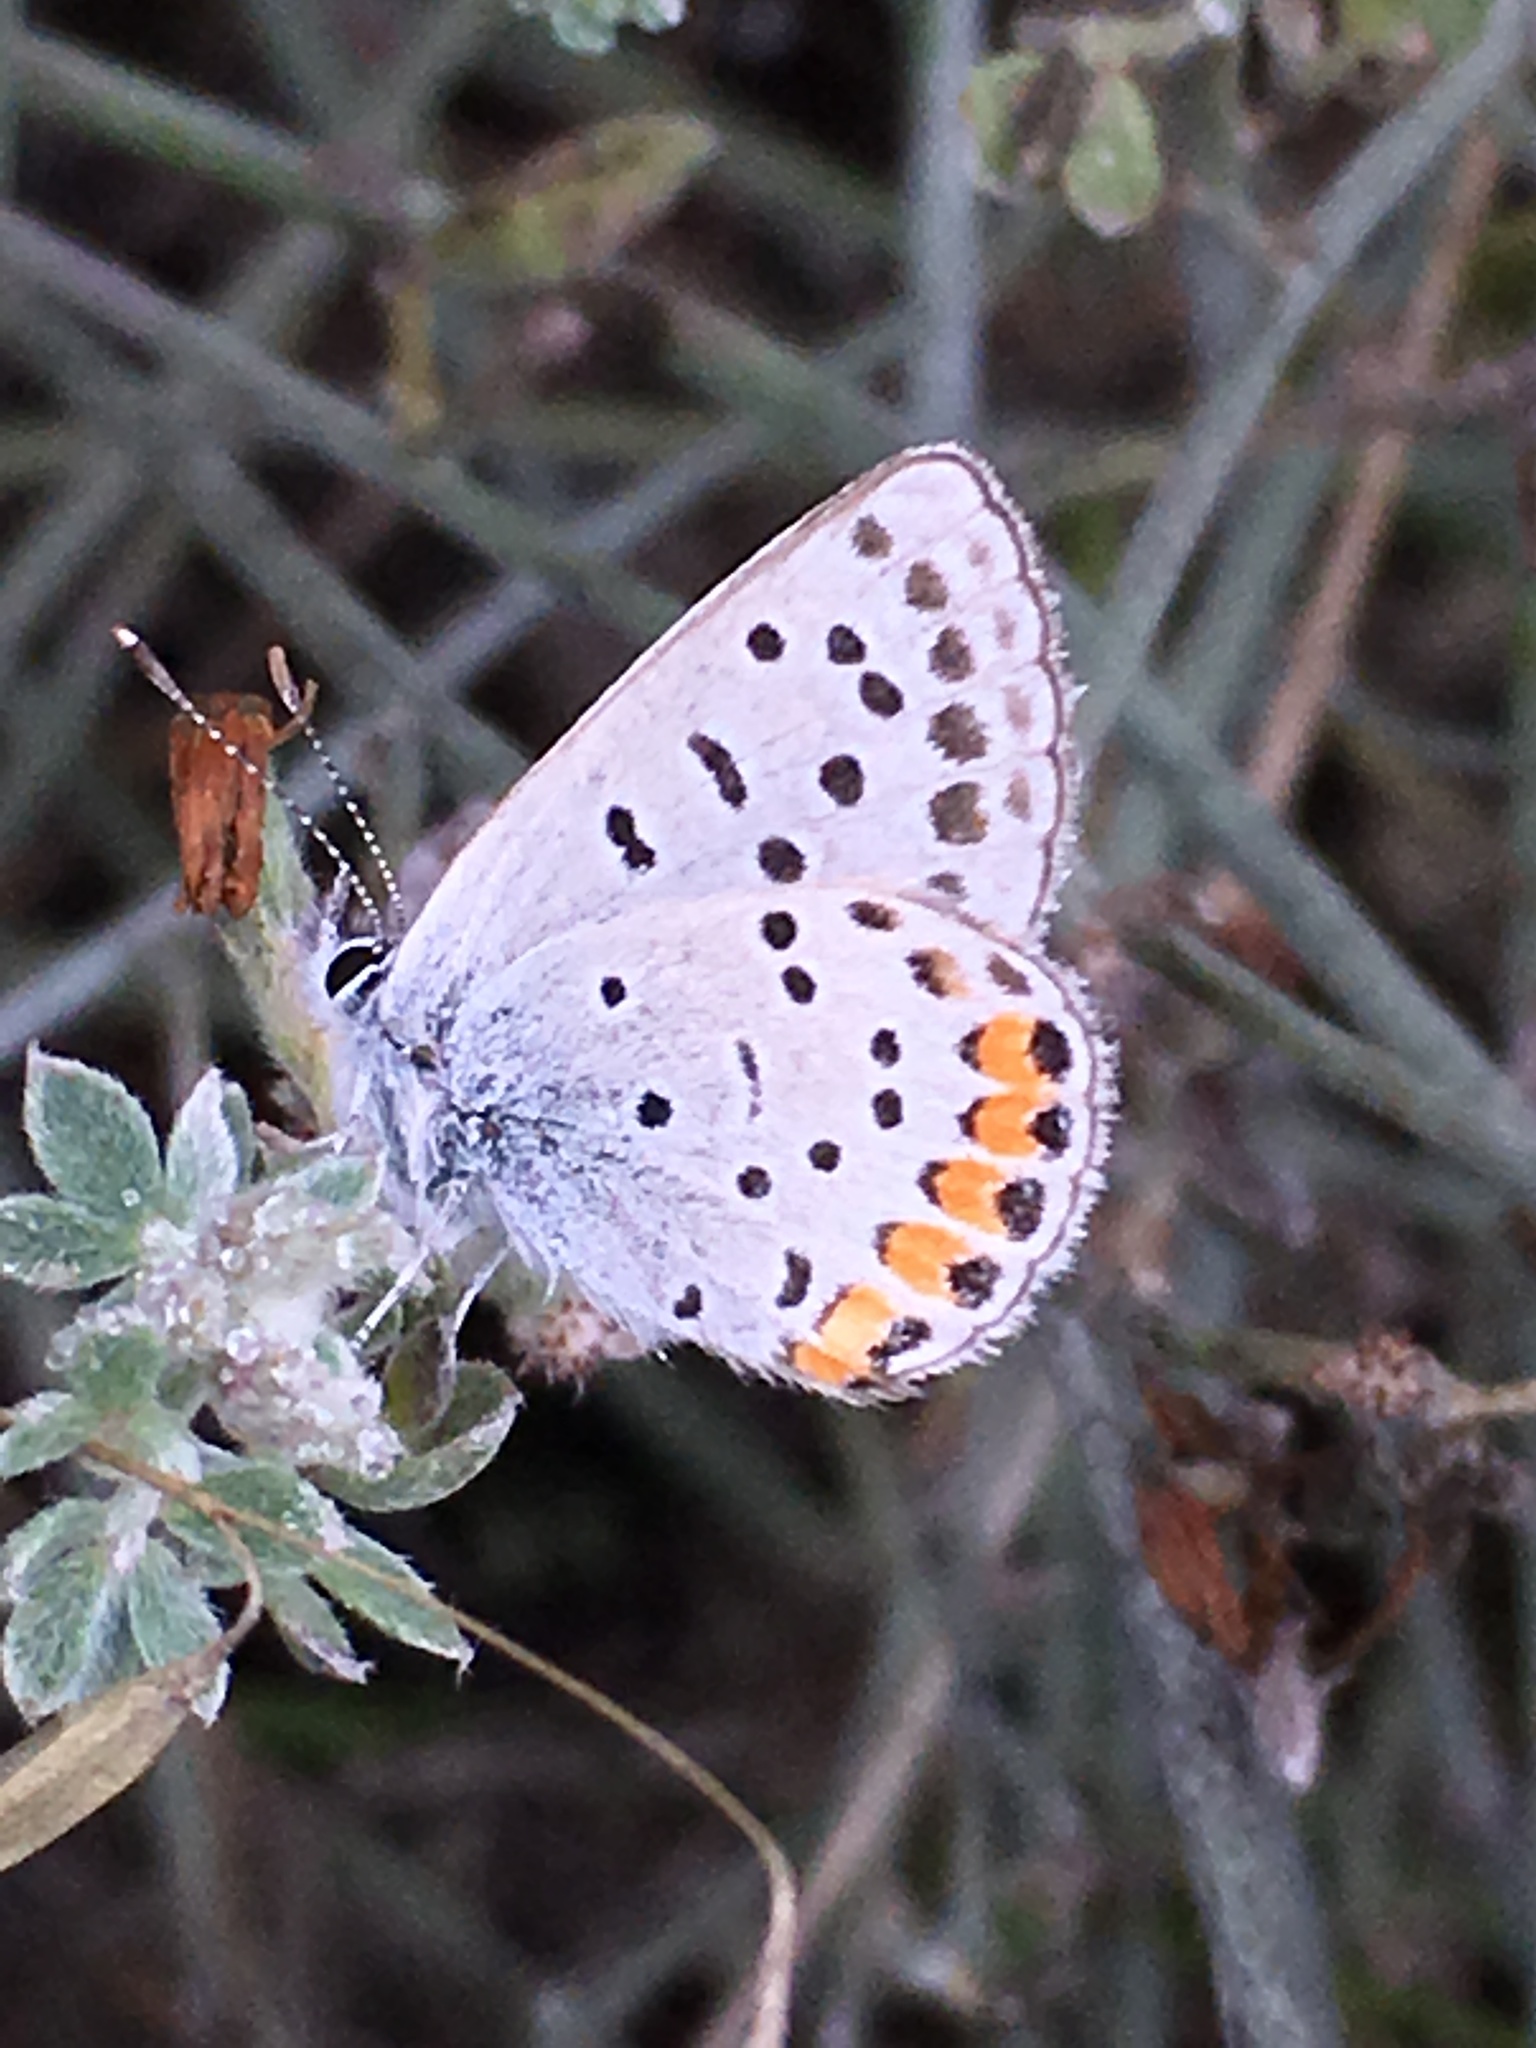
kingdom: Animalia
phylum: Arthropoda
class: Insecta
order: Lepidoptera
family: Lycaenidae
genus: Icaricia
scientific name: Icaricia acmon
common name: Acmon blue
